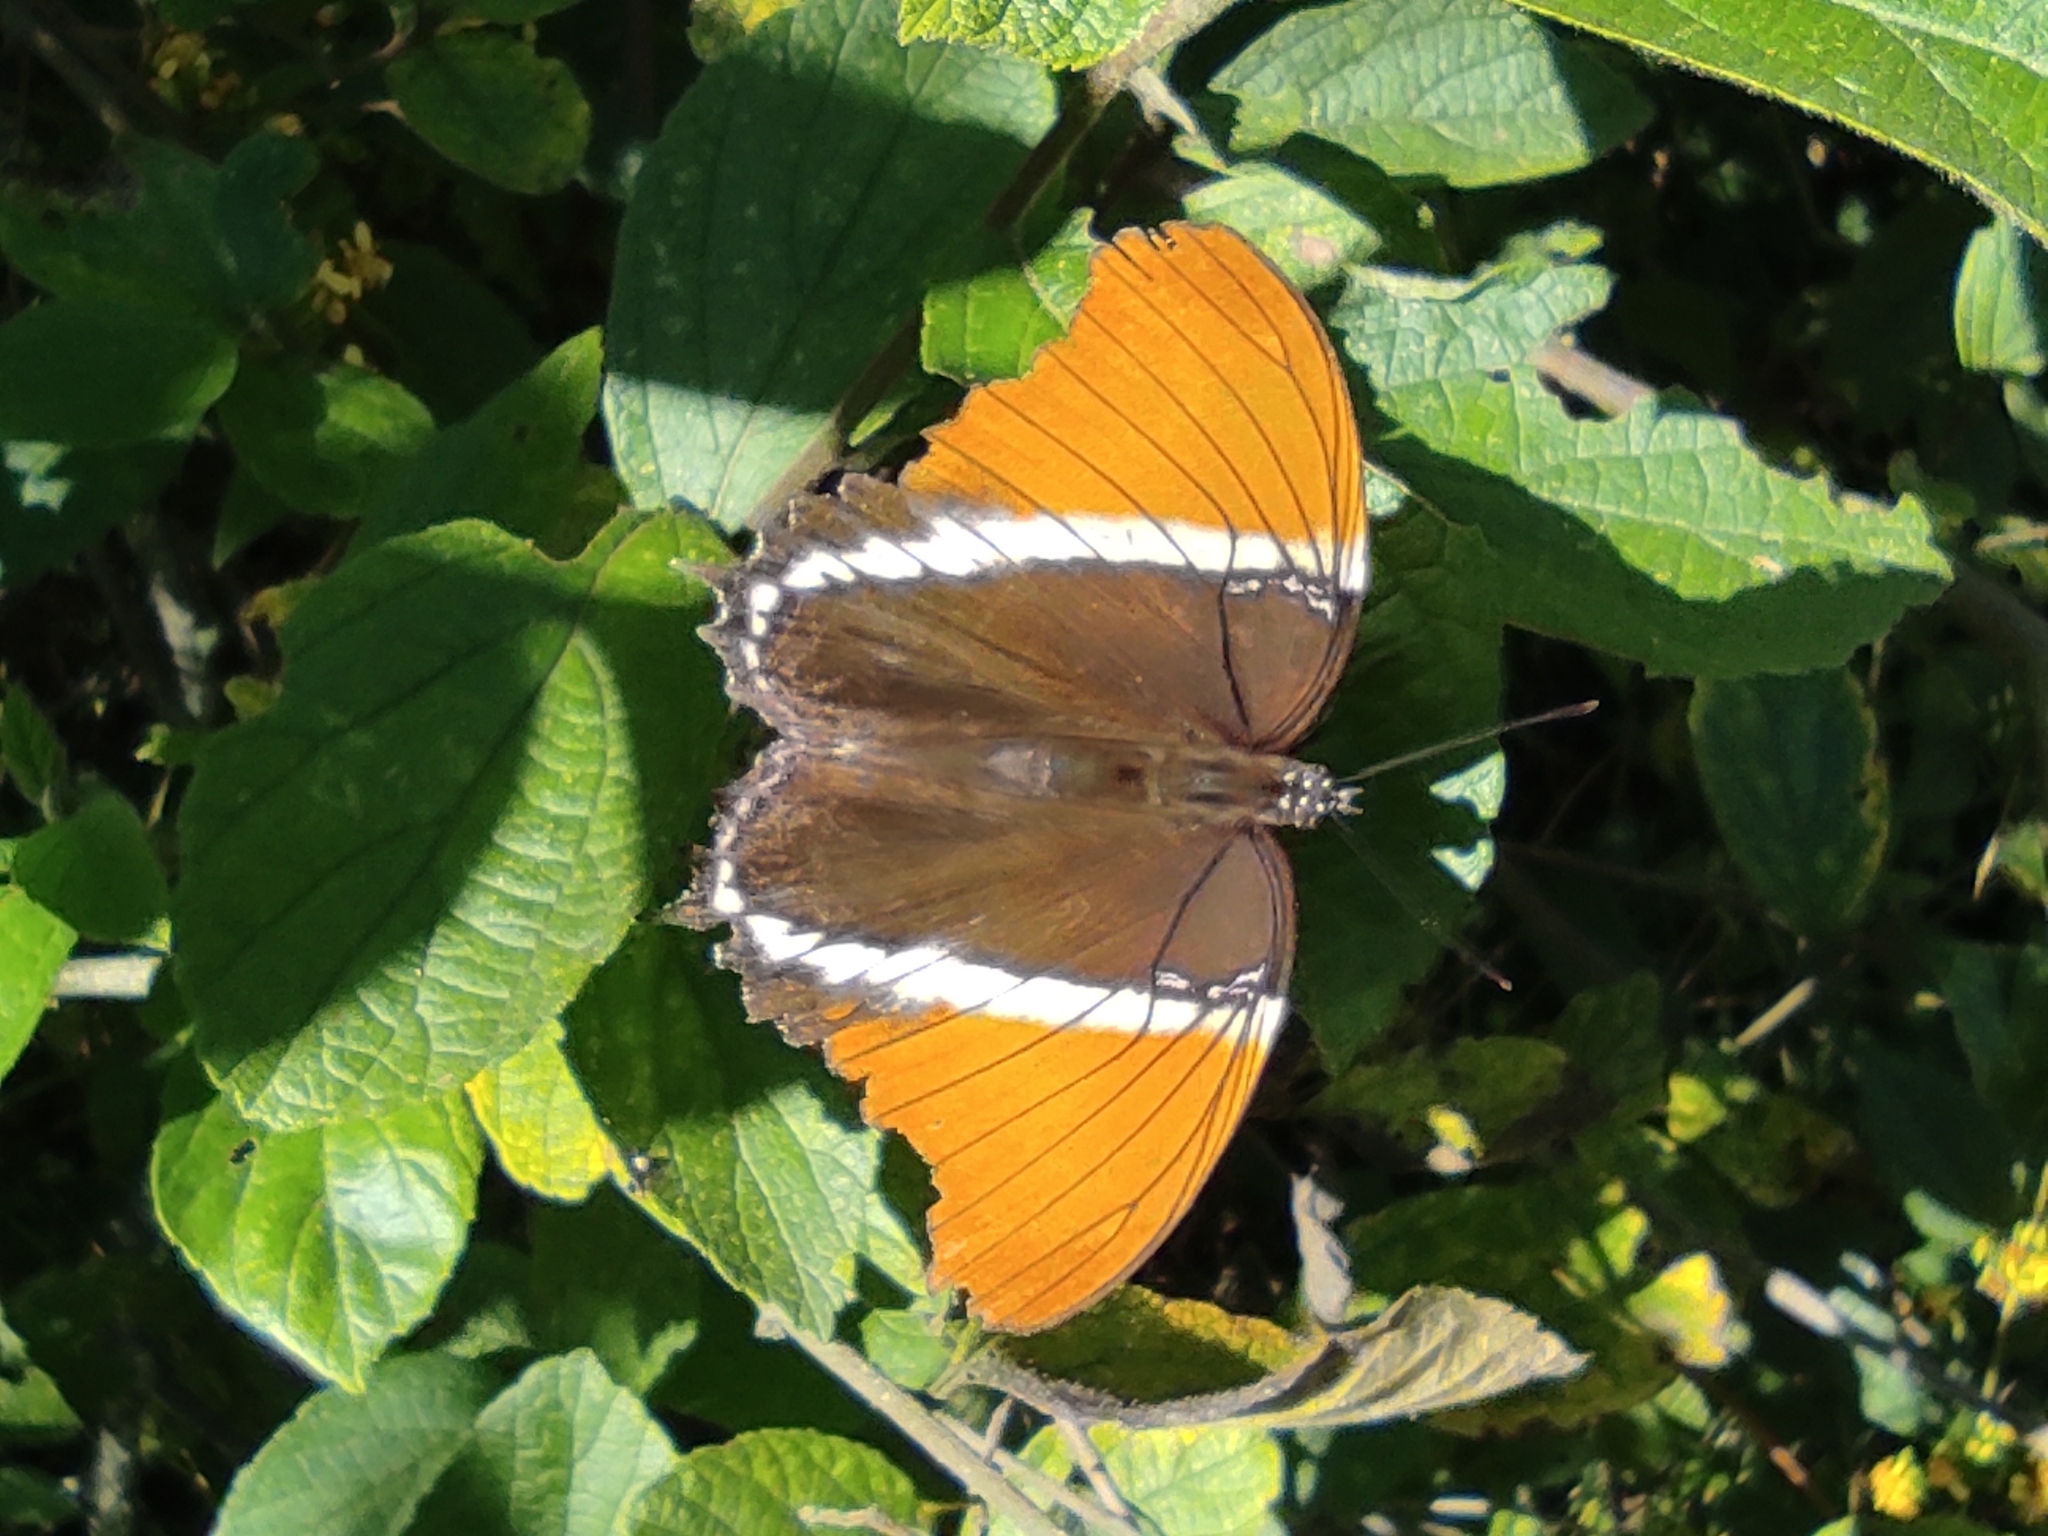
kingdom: Animalia
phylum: Arthropoda
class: Insecta
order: Lepidoptera
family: Nymphalidae
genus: Siproeta
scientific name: Siproeta epaphus
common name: Rusty-tipped page
